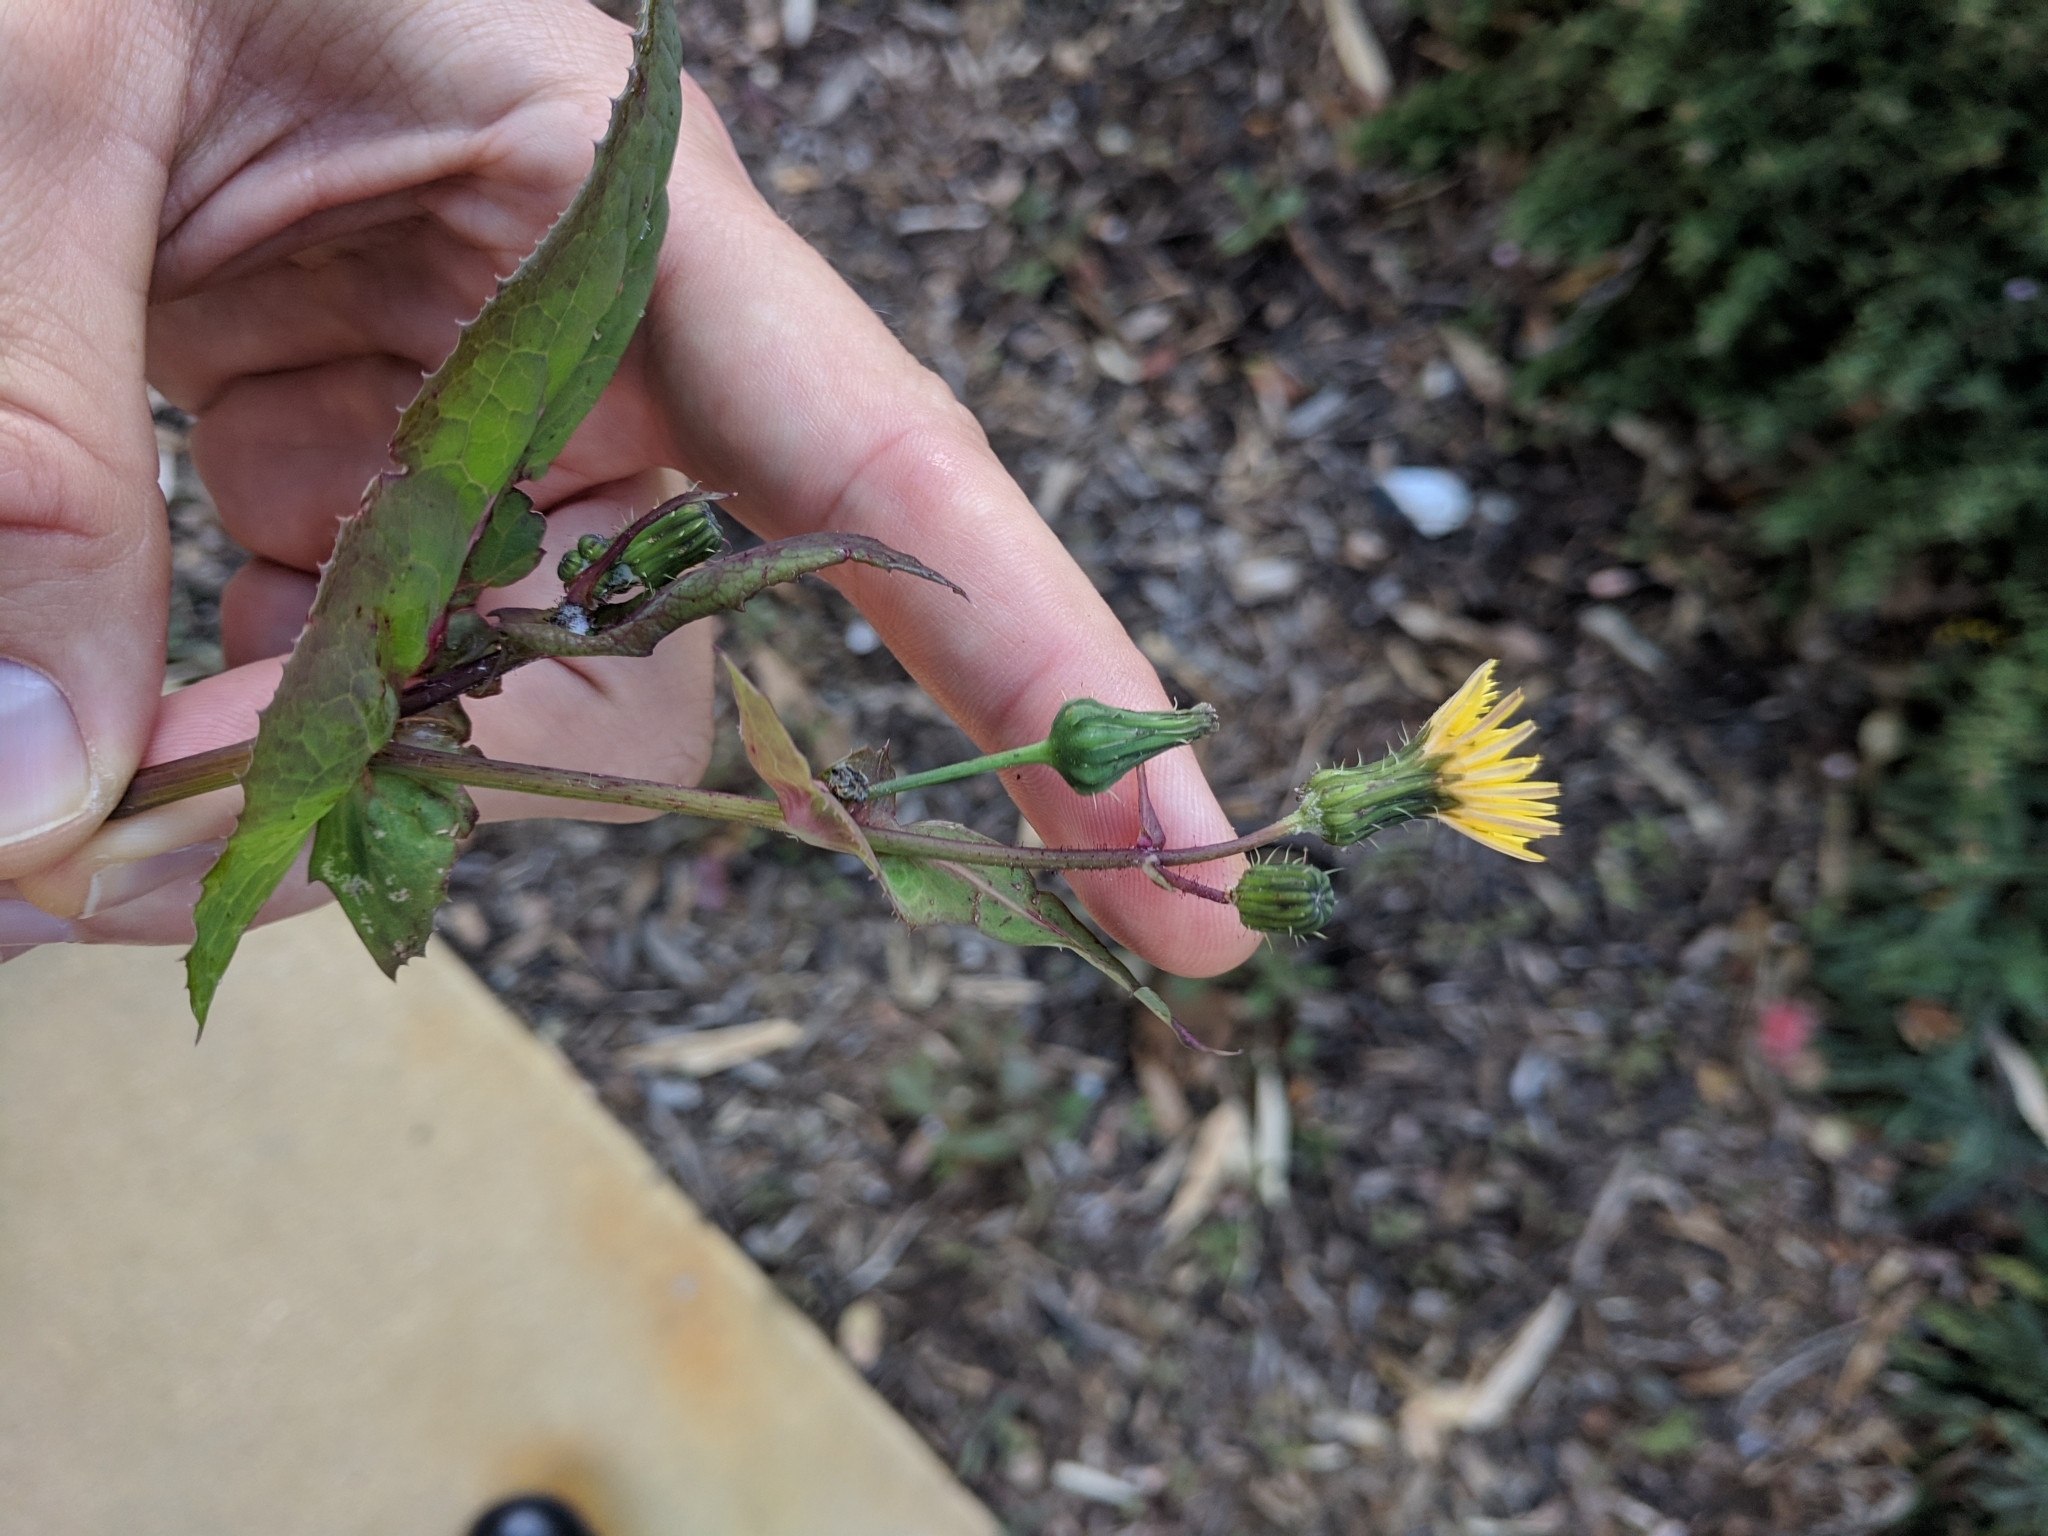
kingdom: Plantae
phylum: Tracheophyta
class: Magnoliopsida
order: Asterales
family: Asteraceae
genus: Sonchus
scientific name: Sonchus oleraceus
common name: Common sowthistle
